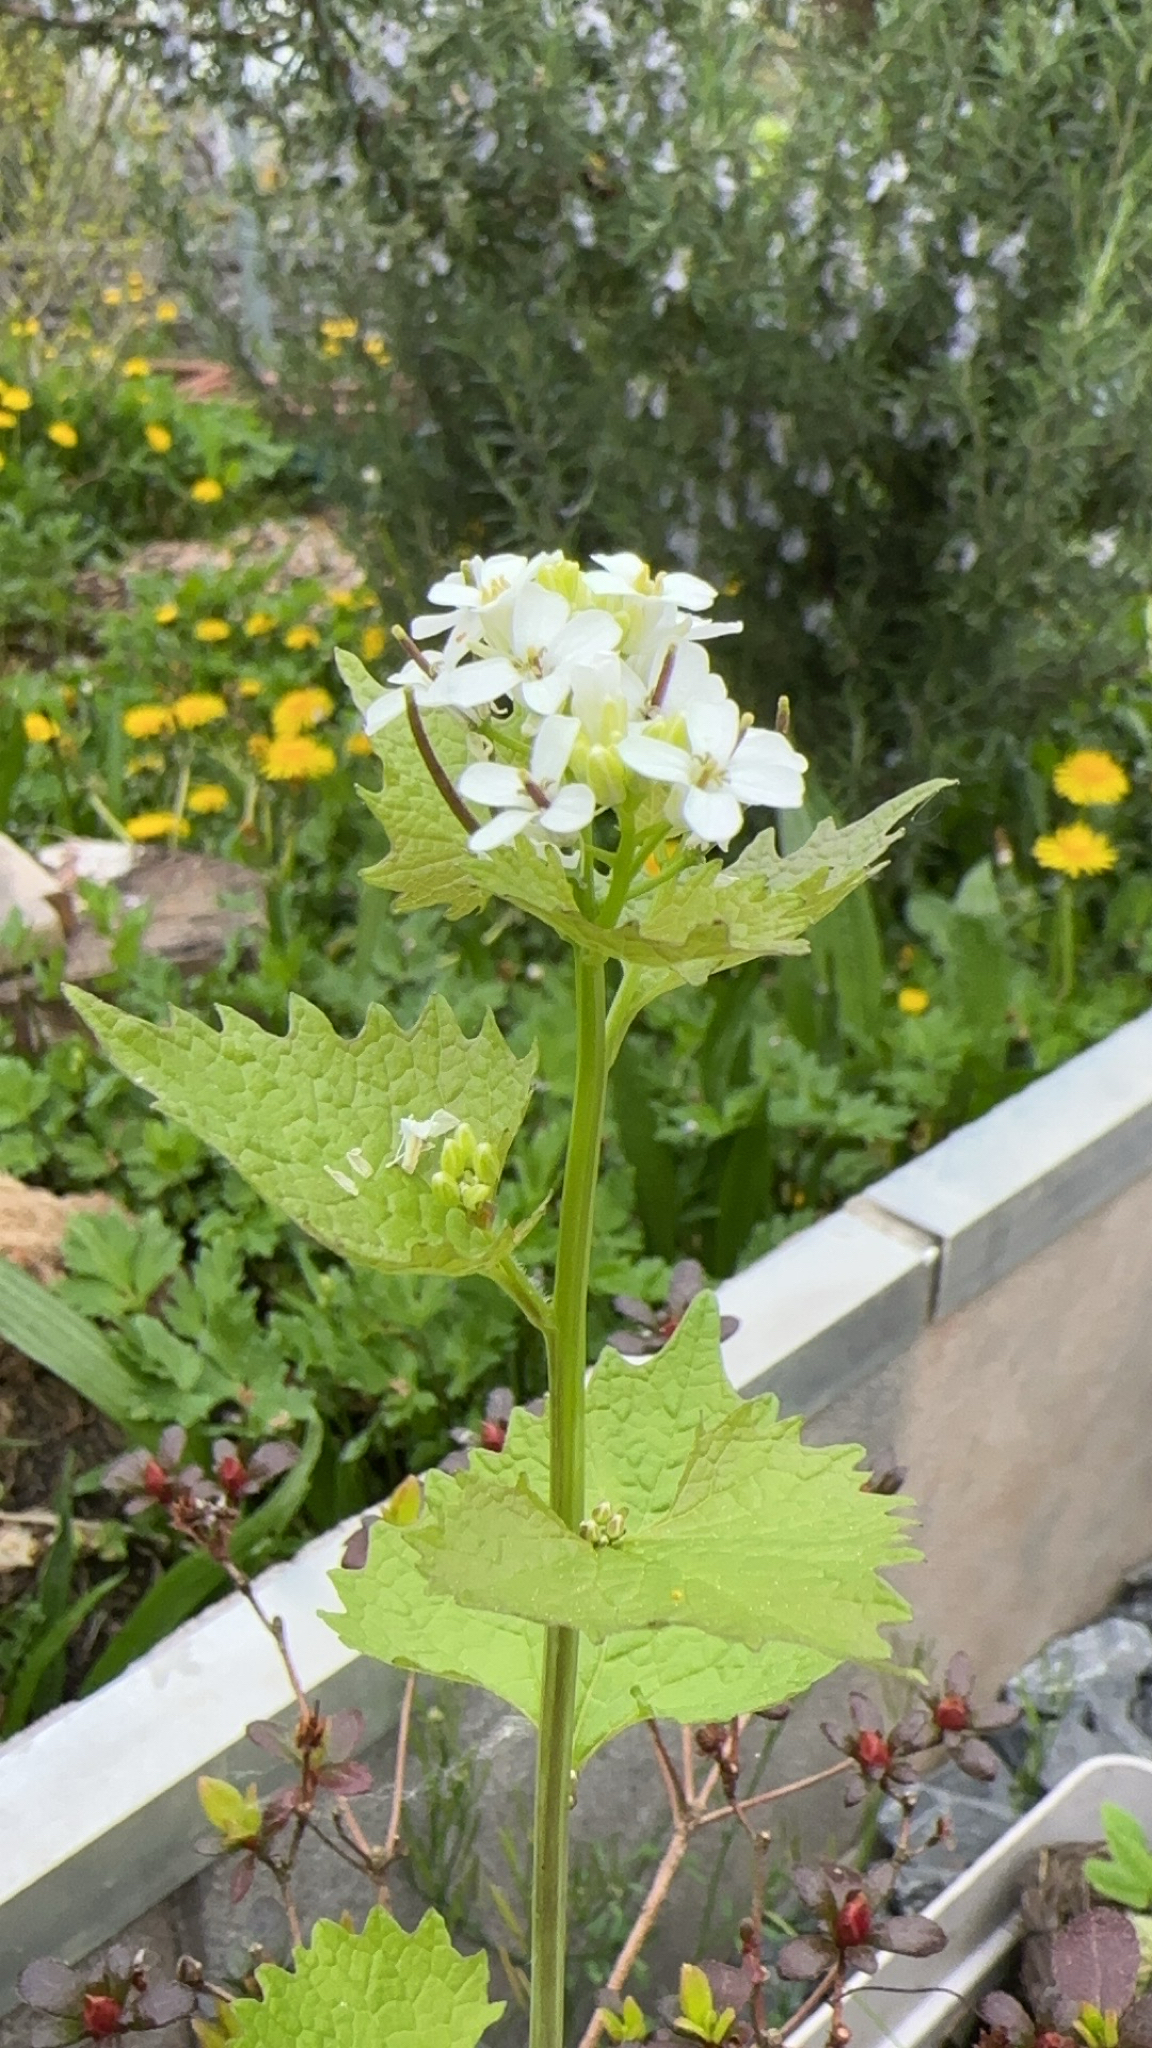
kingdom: Plantae
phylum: Tracheophyta
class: Magnoliopsida
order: Brassicales
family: Brassicaceae
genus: Alliaria
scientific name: Alliaria petiolata
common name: Garlic mustard
